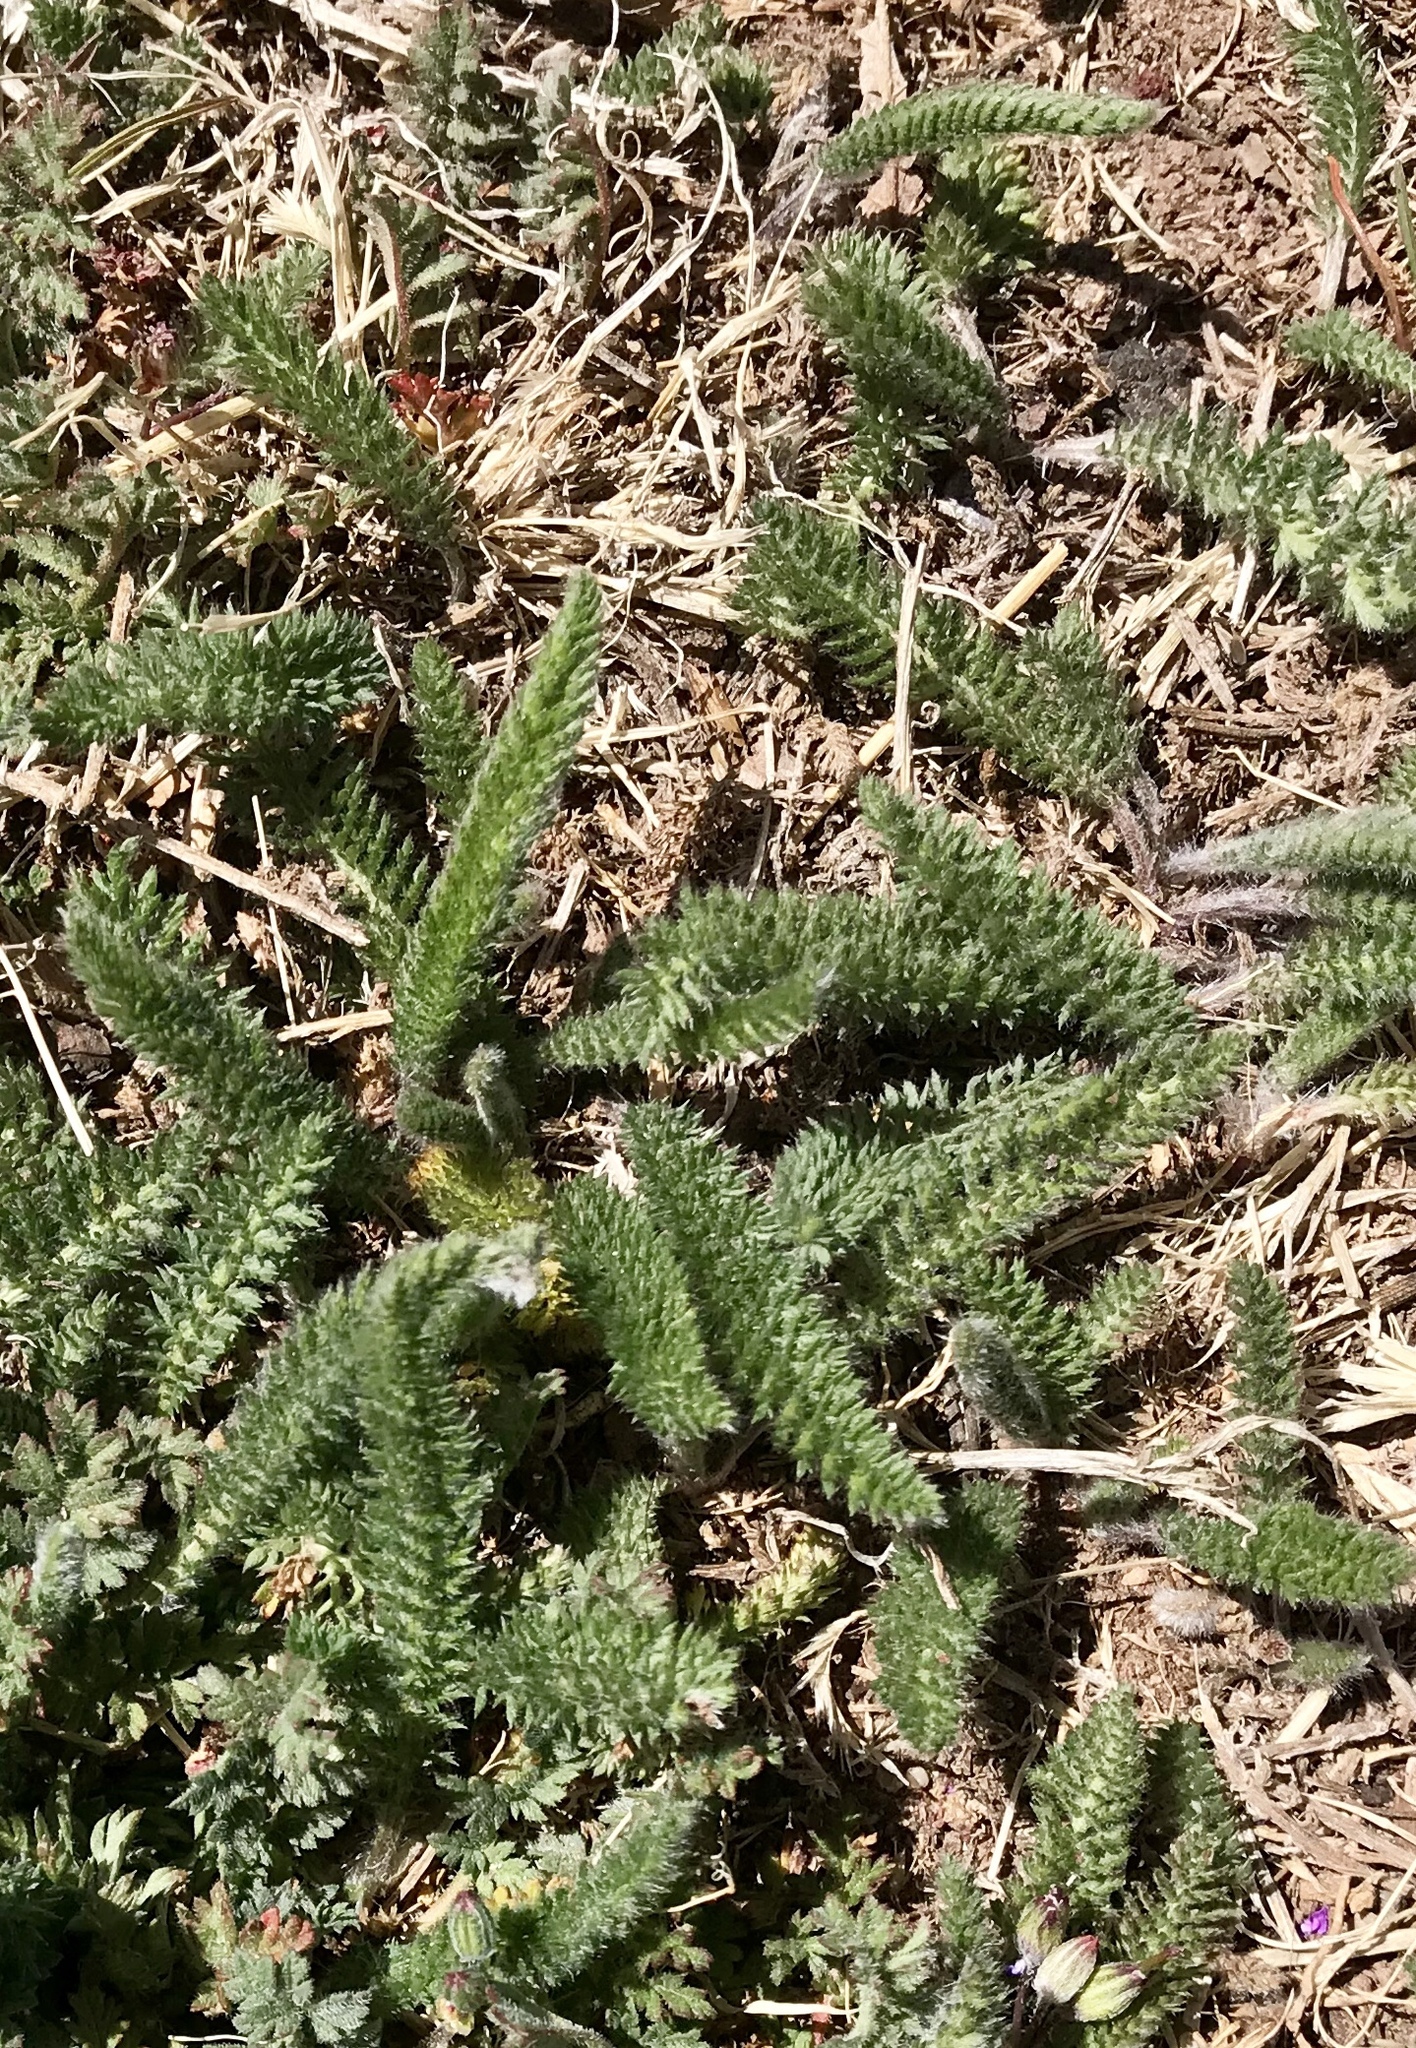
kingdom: Plantae
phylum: Tracheophyta
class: Magnoliopsida
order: Asterales
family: Asteraceae
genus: Achillea
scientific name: Achillea millefolium
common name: Yarrow
